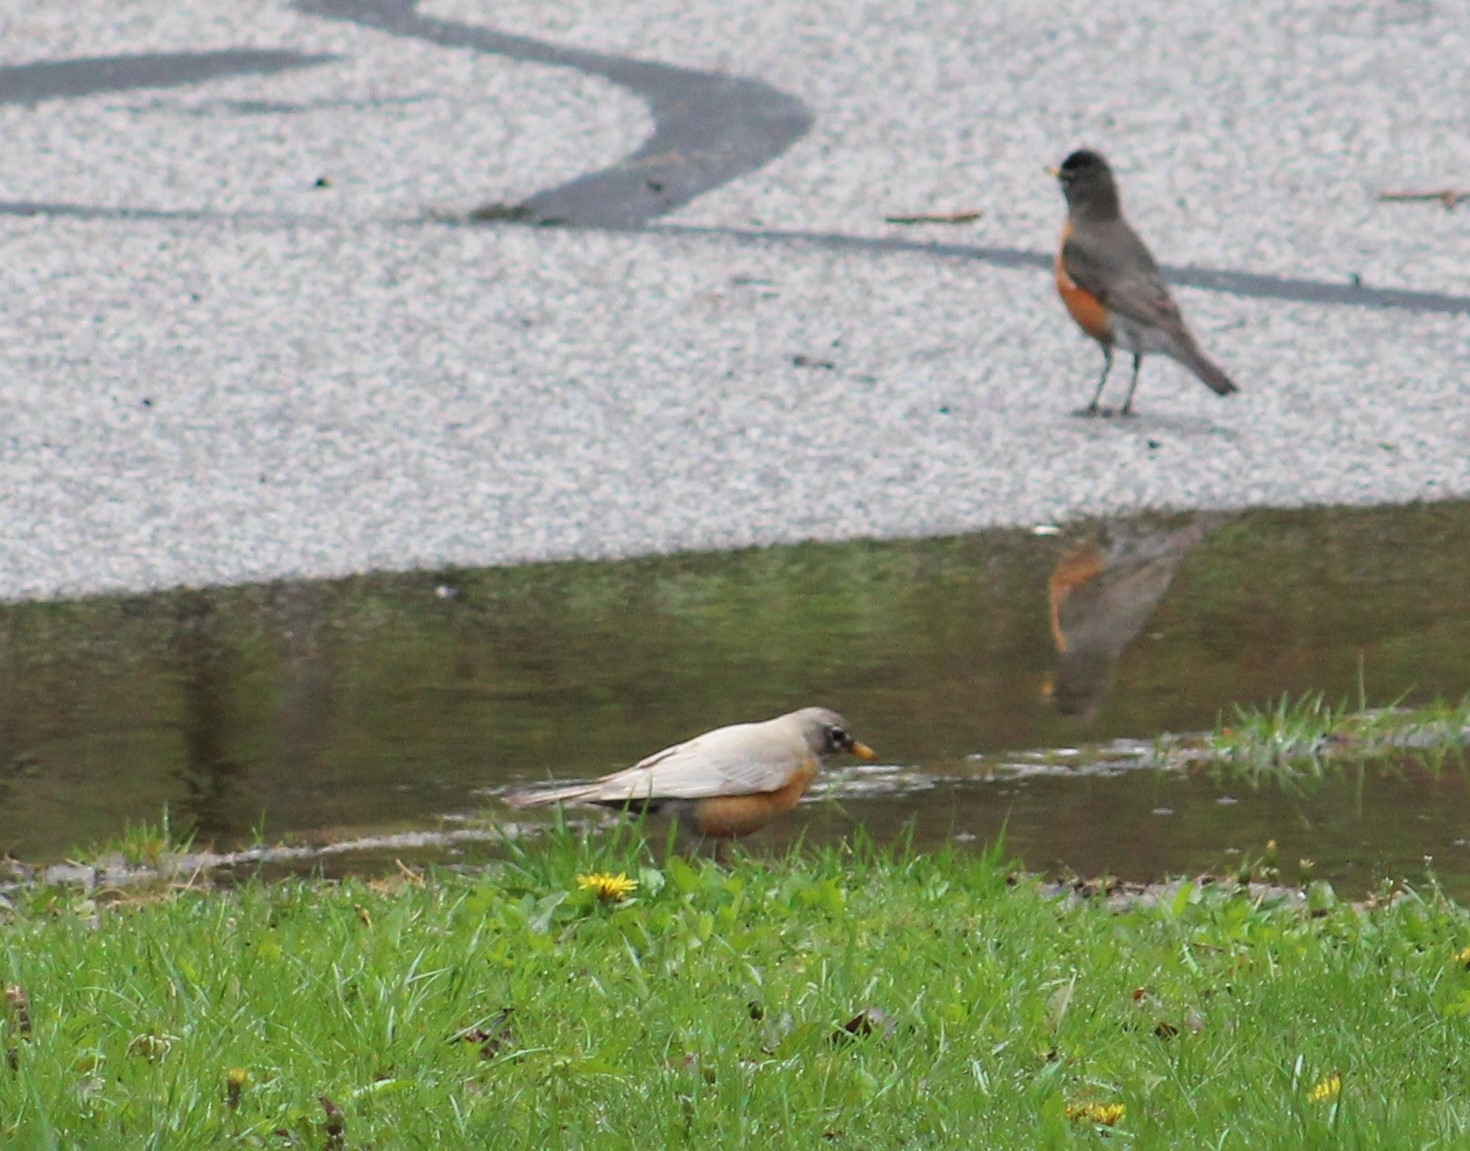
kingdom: Animalia
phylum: Chordata
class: Aves
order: Passeriformes
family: Turdidae
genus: Turdus
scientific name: Turdus migratorius
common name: American robin
